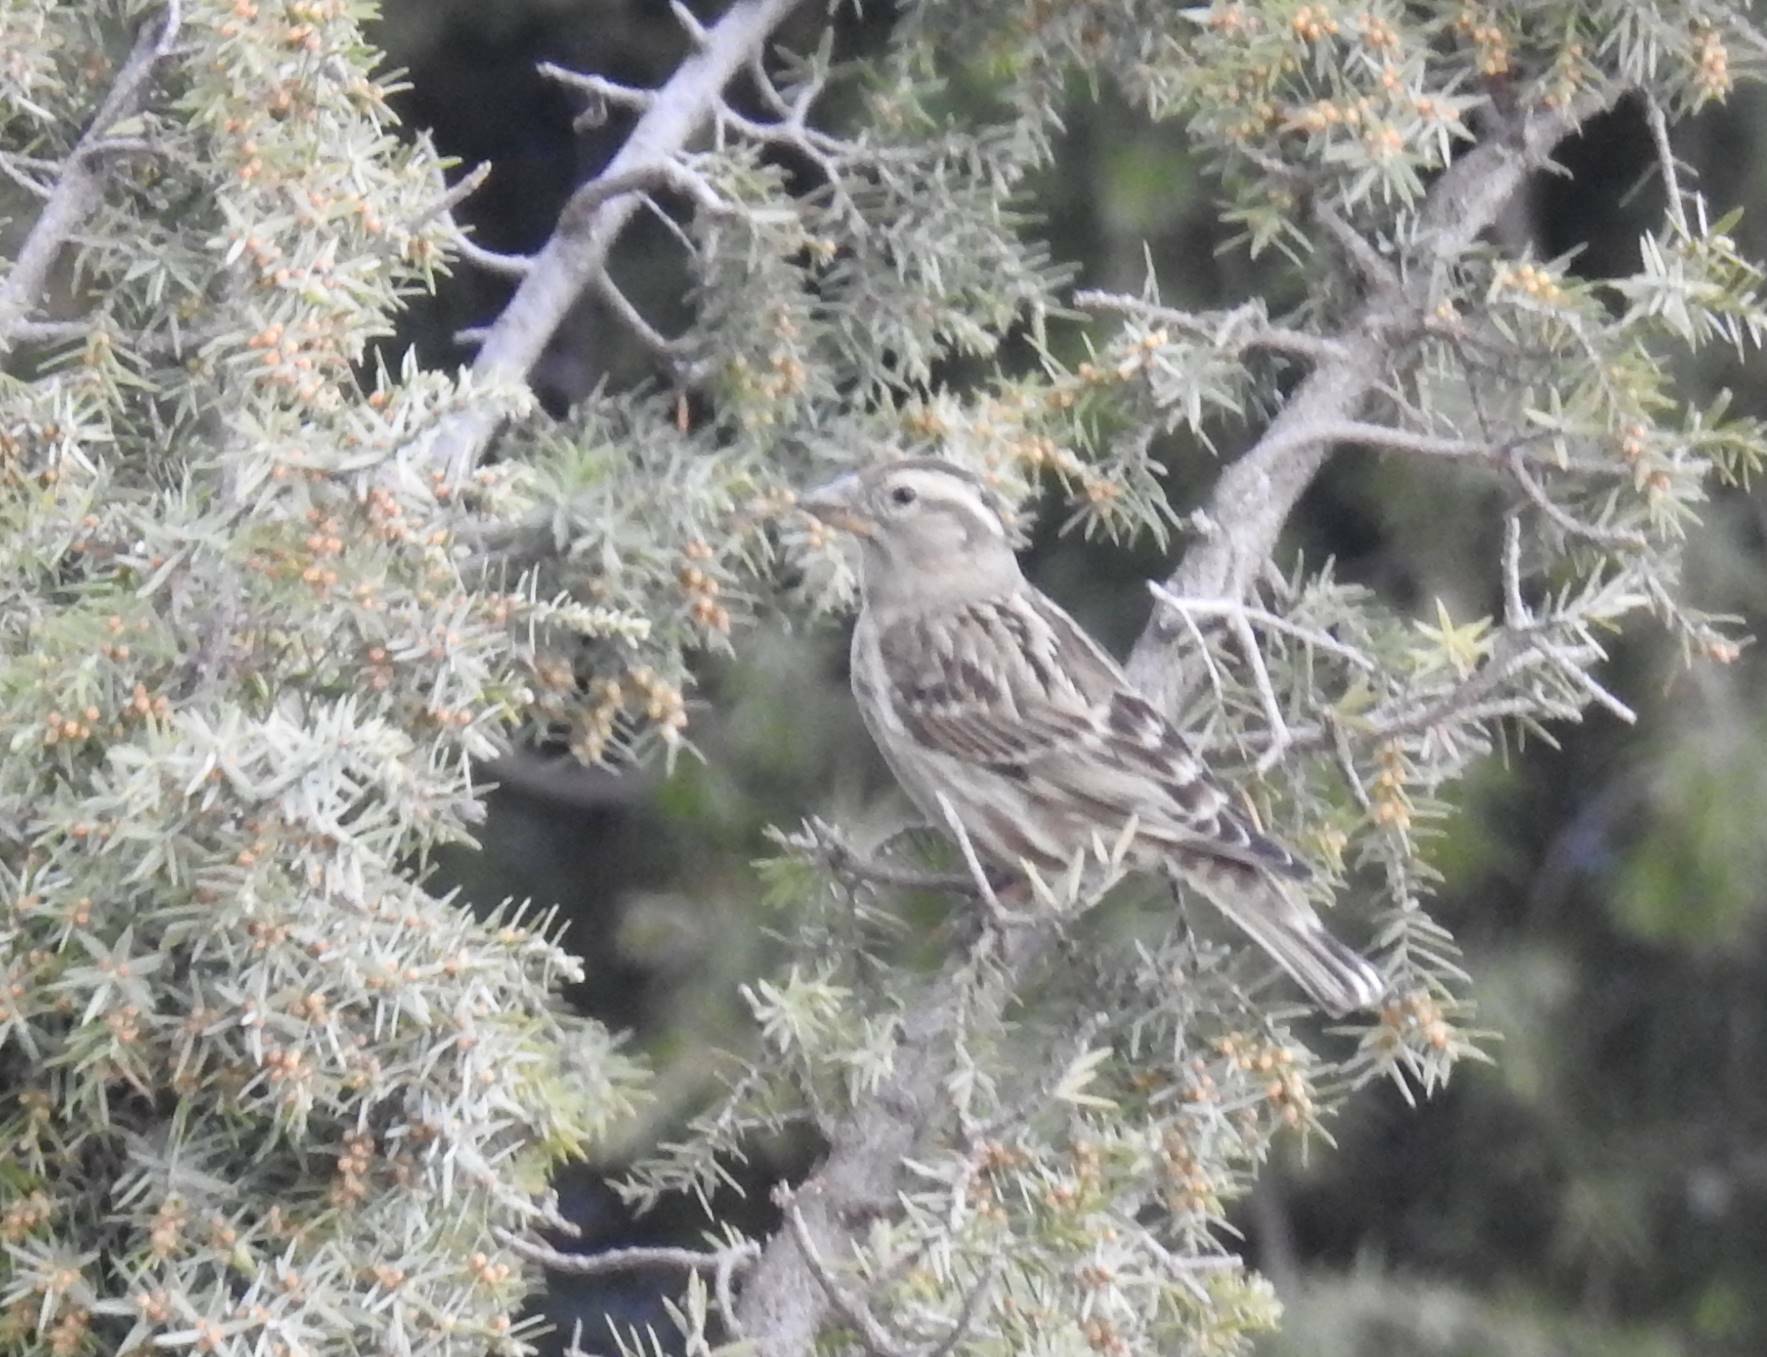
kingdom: Animalia
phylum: Chordata
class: Aves
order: Passeriformes
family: Passeridae
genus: Petronia
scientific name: Petronia petronia
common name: Rock sparrow
